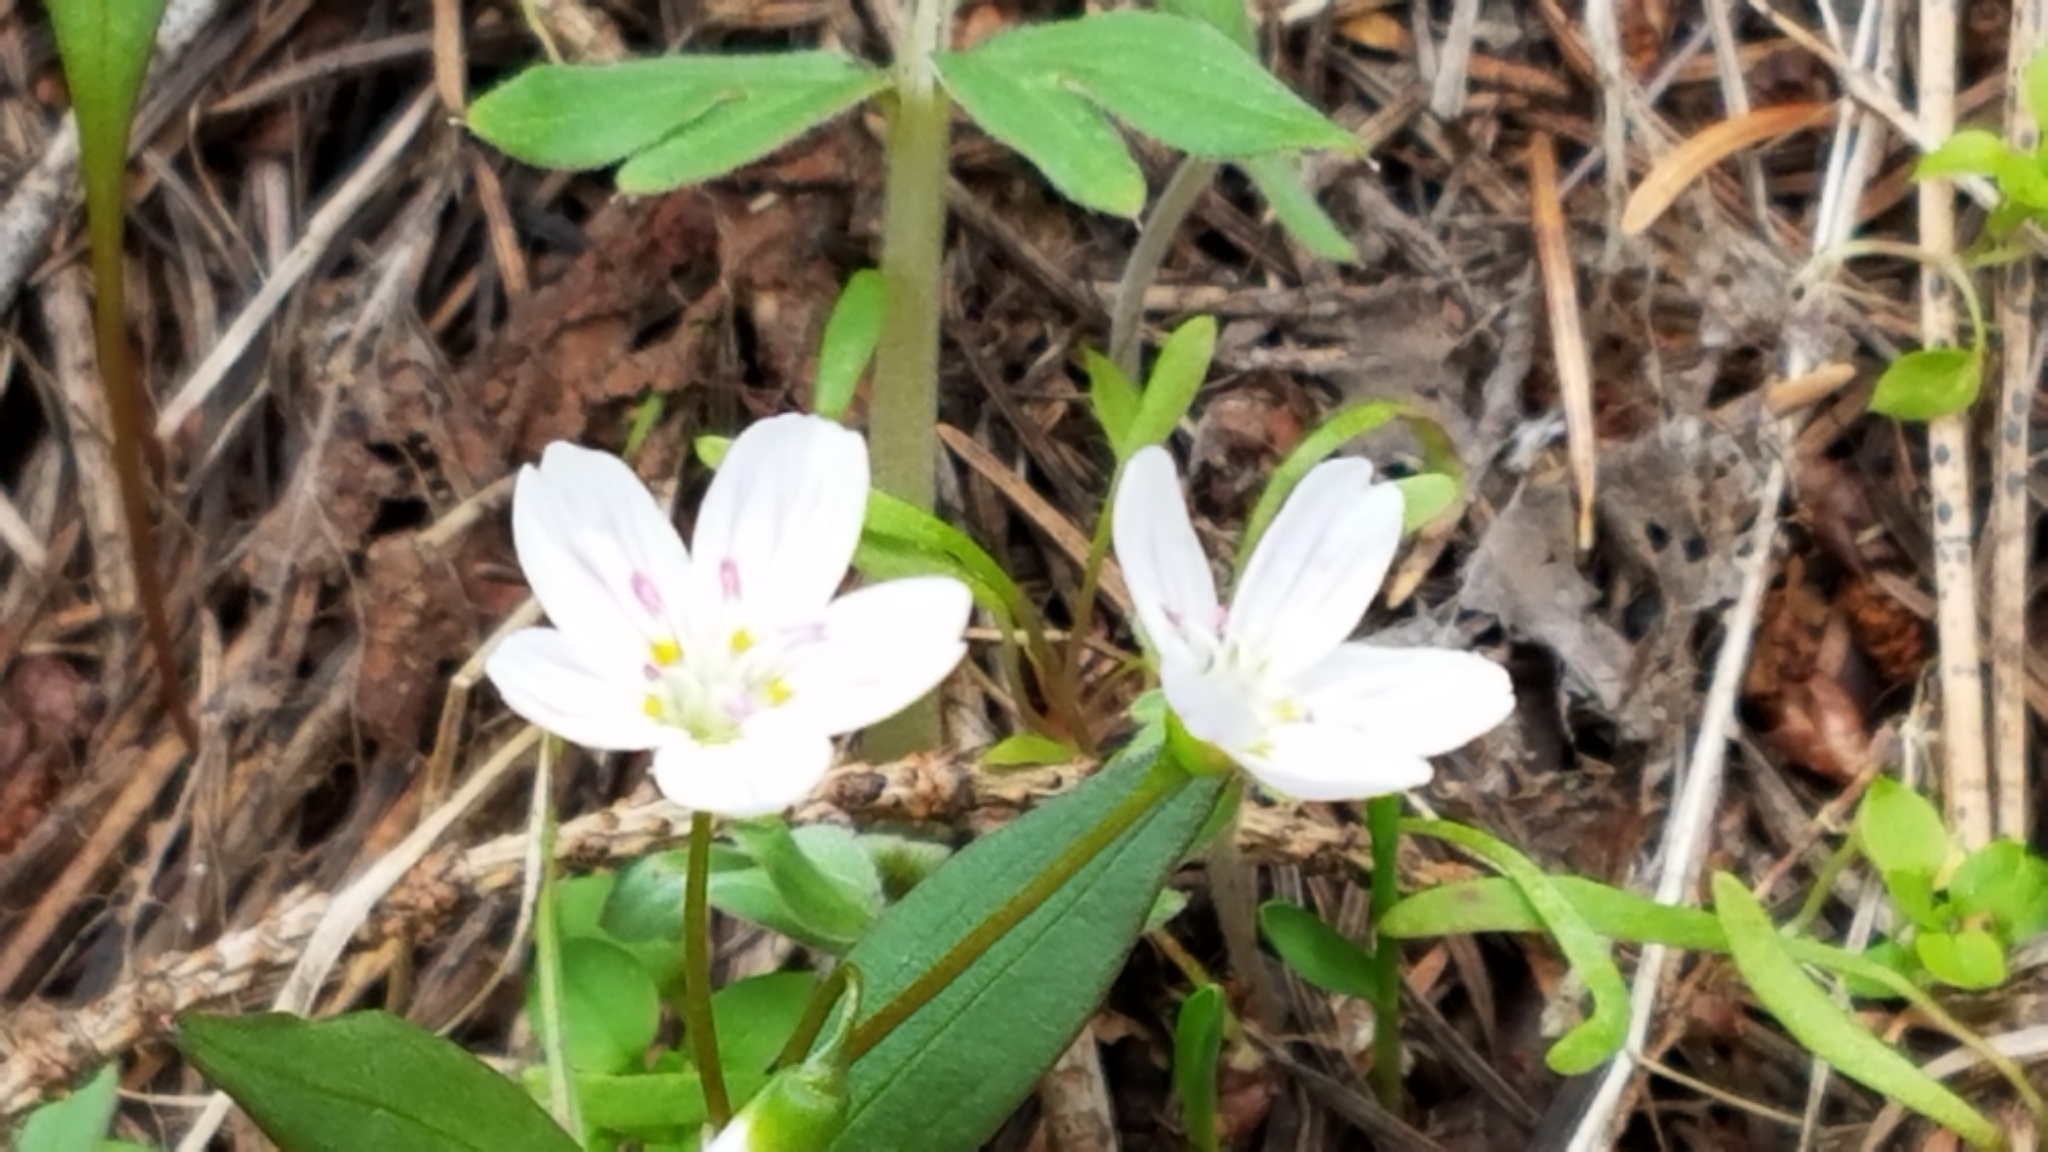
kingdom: Plantae
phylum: Tracheophyta
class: Magnoliopsida
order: Caryophyllales
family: Montiaceae
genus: Claytonia
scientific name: Claytonia lanceolata
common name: Western spring-beauty
